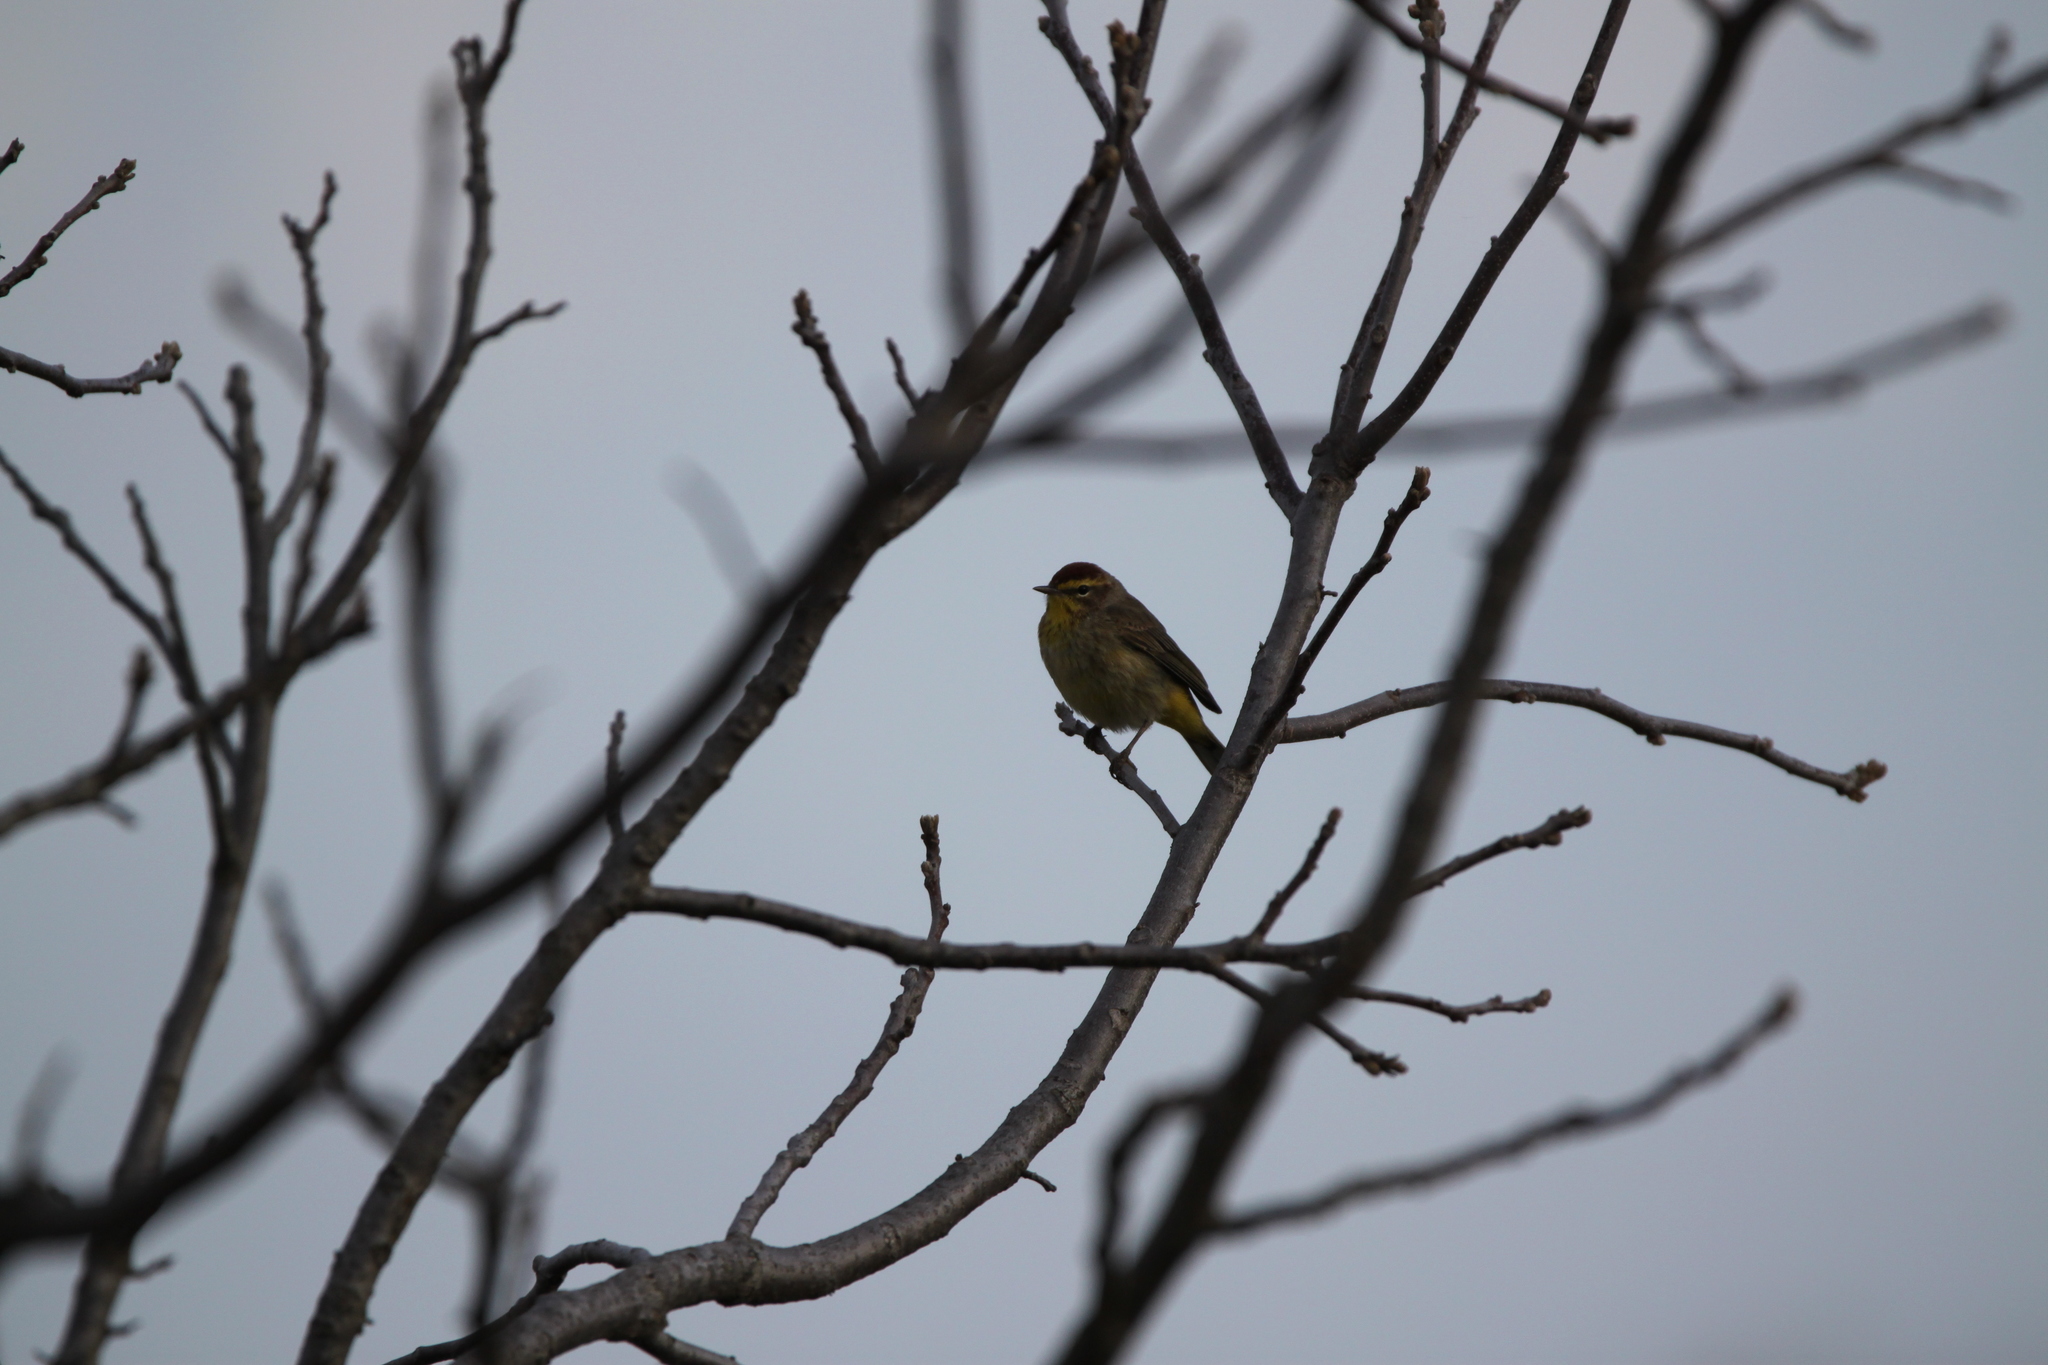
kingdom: Animalia
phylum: Chordata
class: Aves
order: Passeriformes
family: Parulidae
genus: Setophaga
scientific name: Setophaga palmarum
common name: Palm warbler
